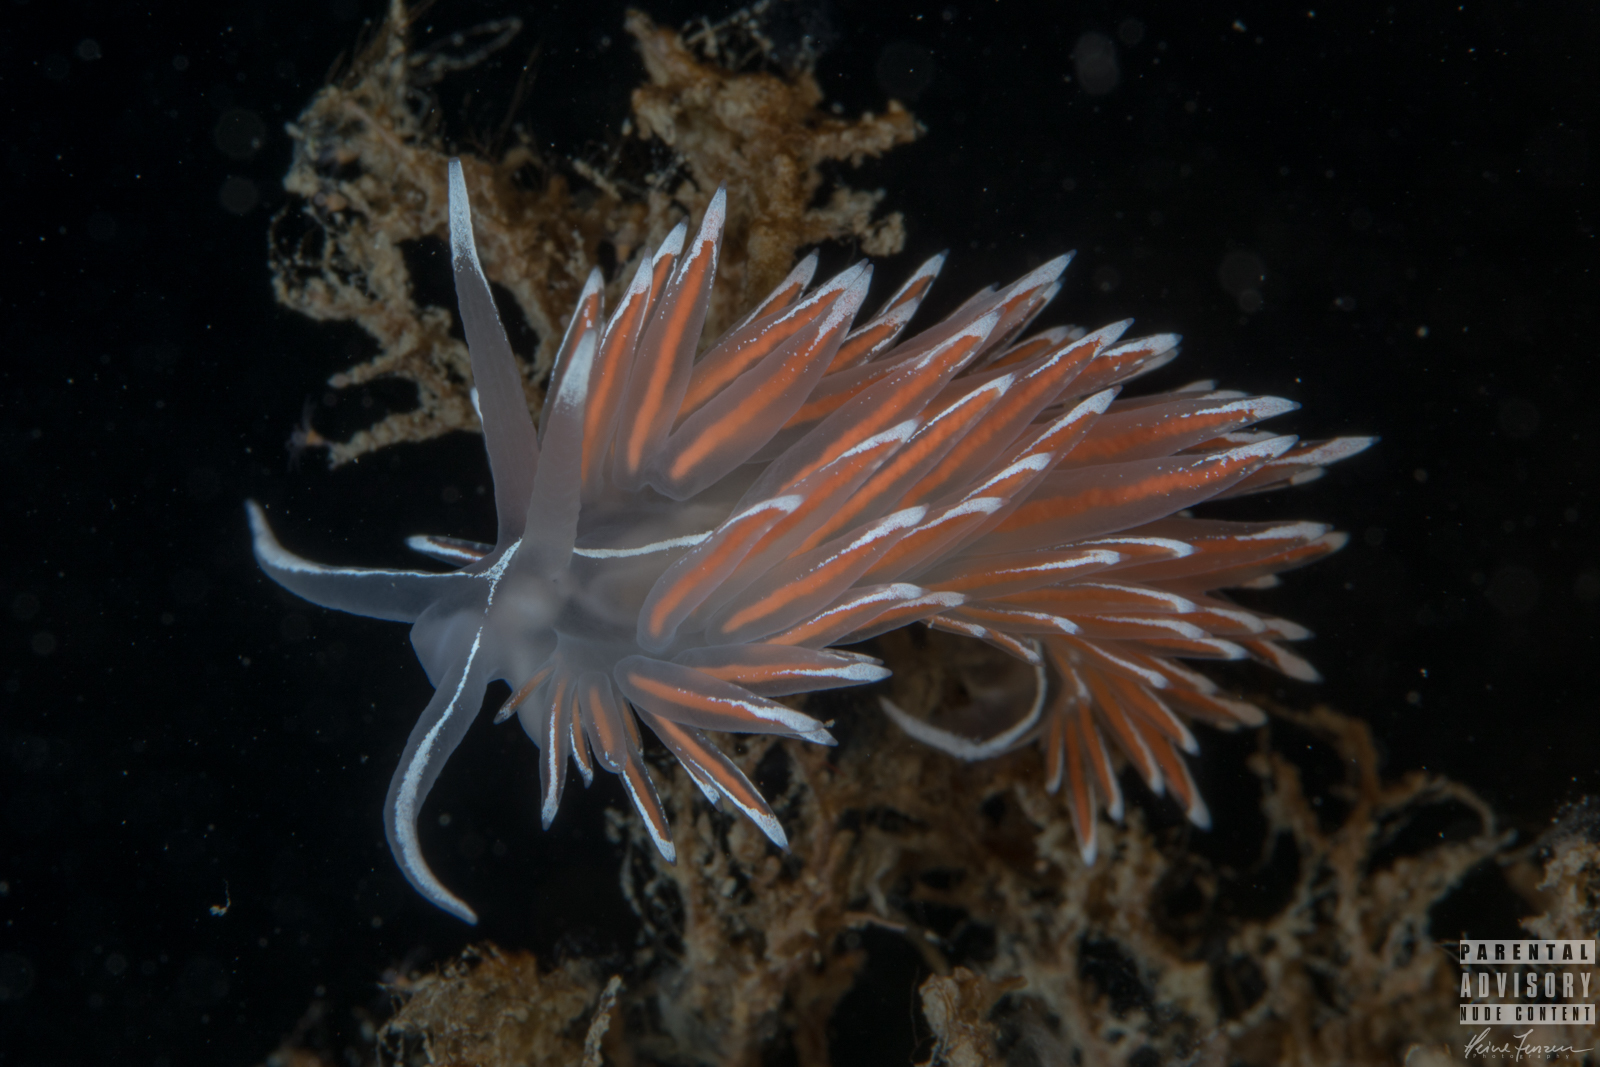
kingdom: Animalia
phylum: Mollusca
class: Gastropoda
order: Nudibranchia
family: Coryphellidae
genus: Coryphella
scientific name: Coryphella lineata
